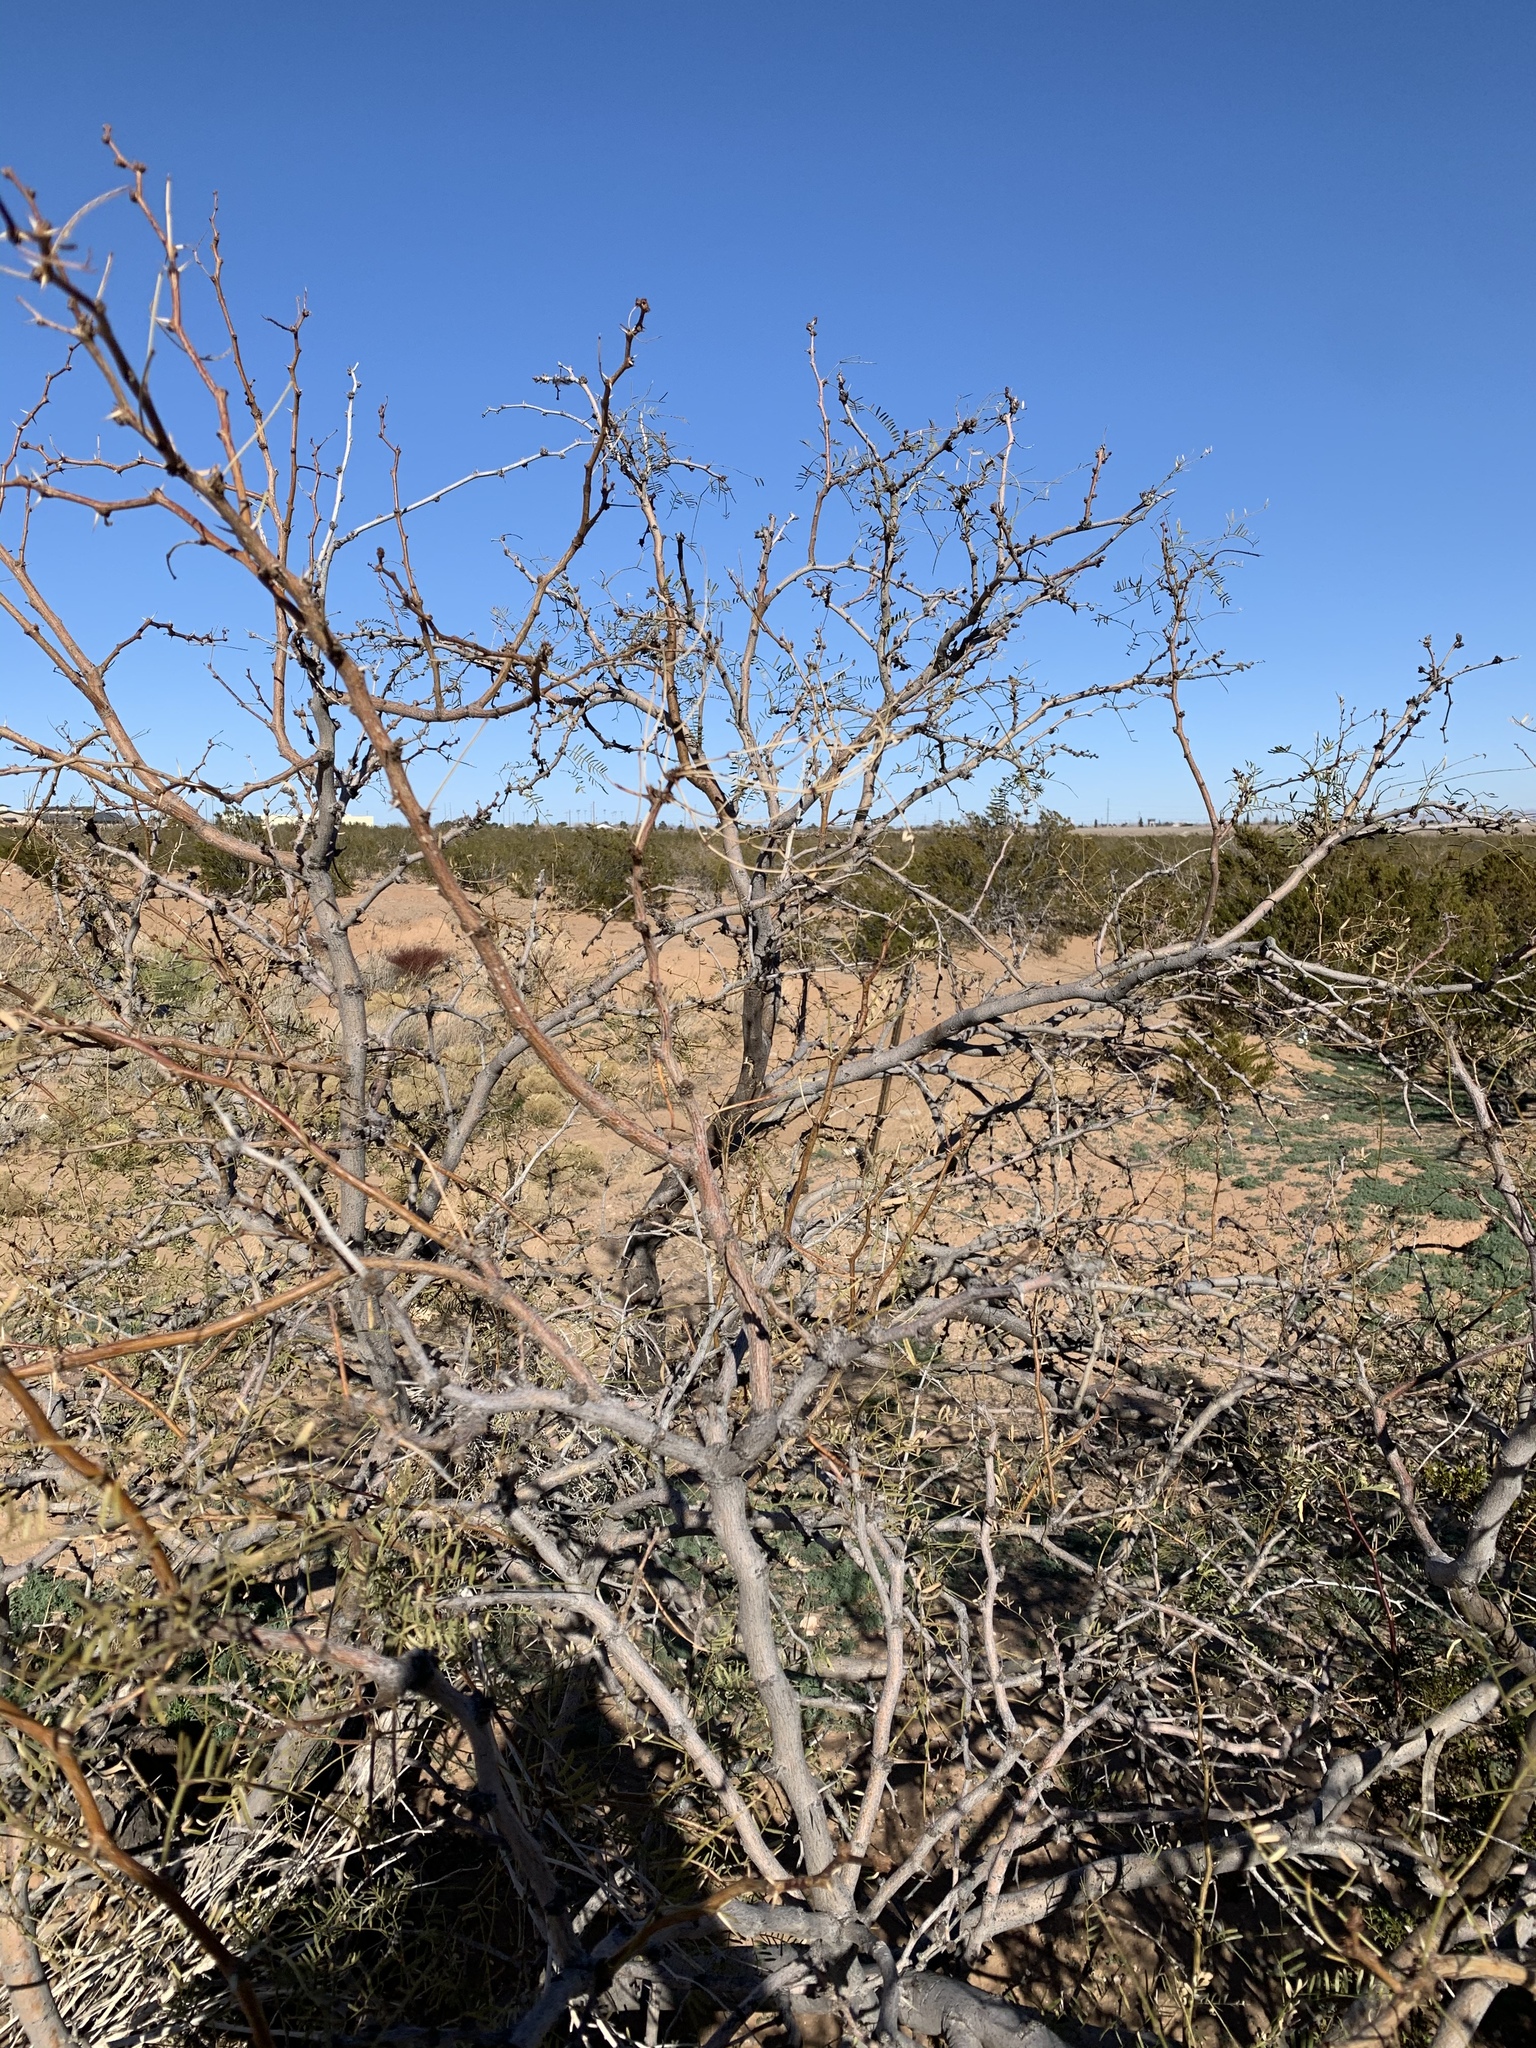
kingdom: Plantae
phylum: Tracheophyta
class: Magnoliopsida
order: Fabales
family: Fabaceae
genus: Prosopis
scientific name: Prosopis glandulosa
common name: Honey mesquite
